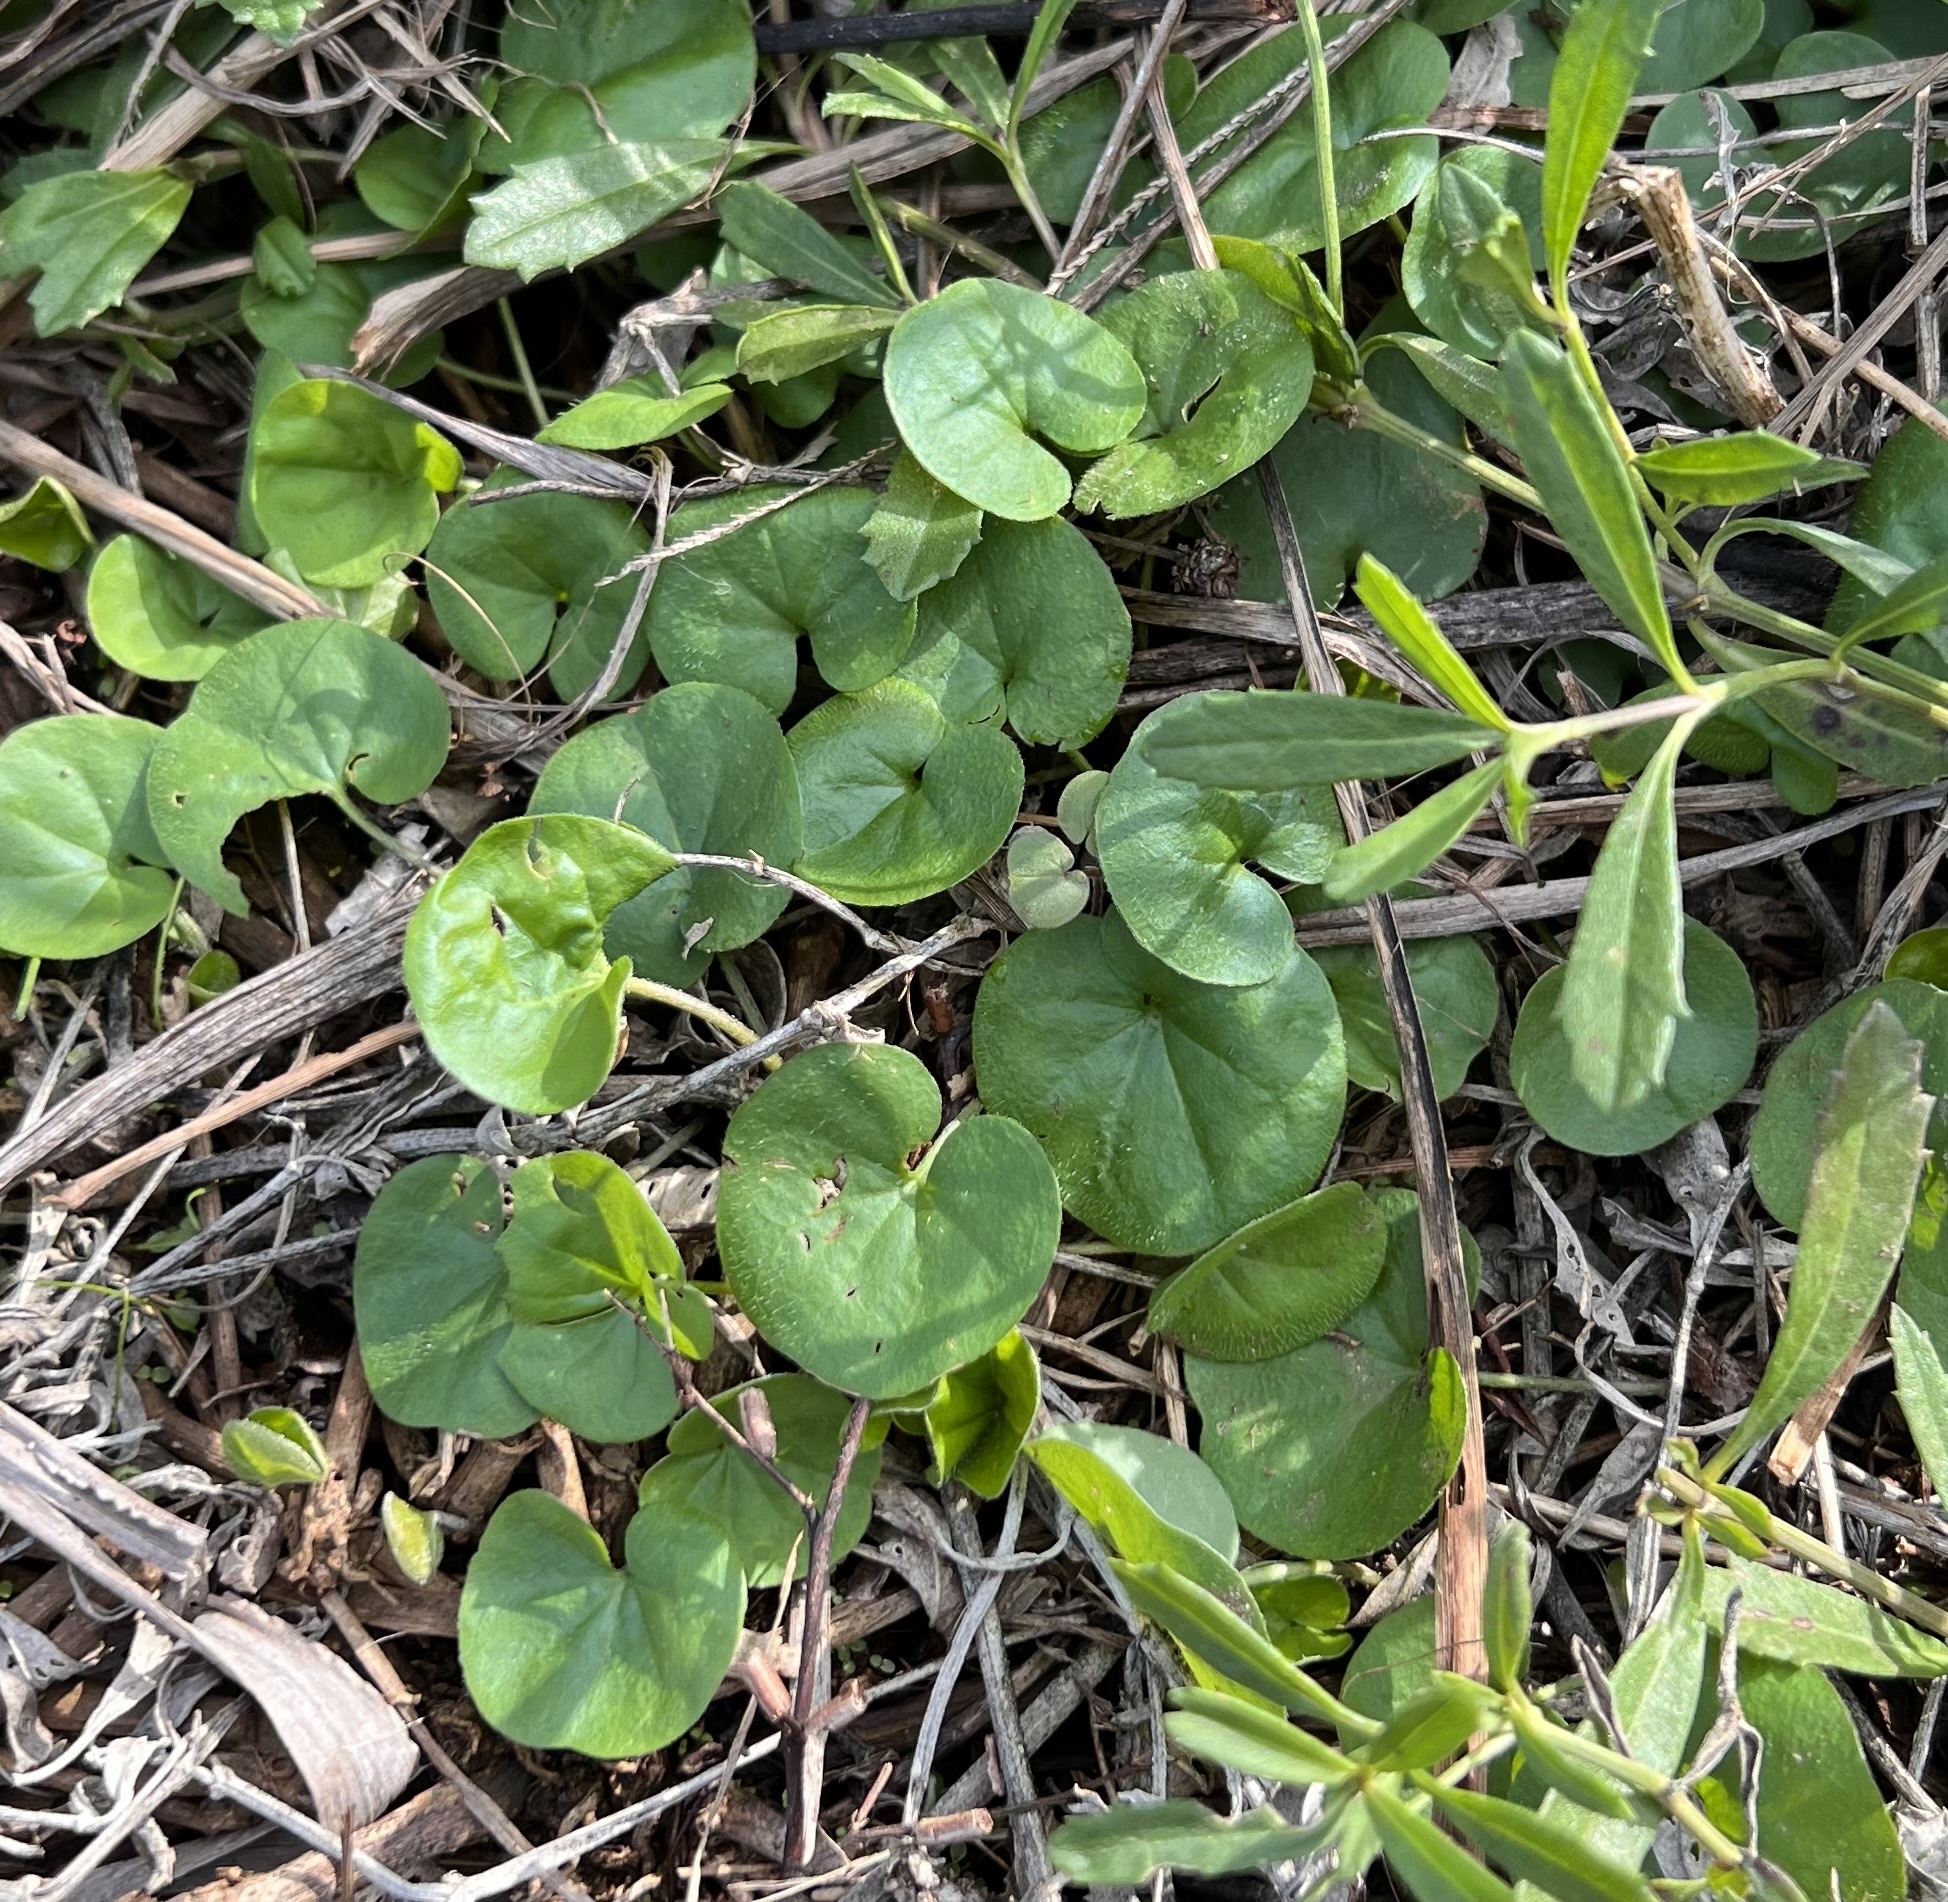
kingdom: Plantae
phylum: Tracheophyta
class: Magnoliopsida
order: Solanales
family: Convolvulaceae
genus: Dichondra
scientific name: Dichondra carolinensis
